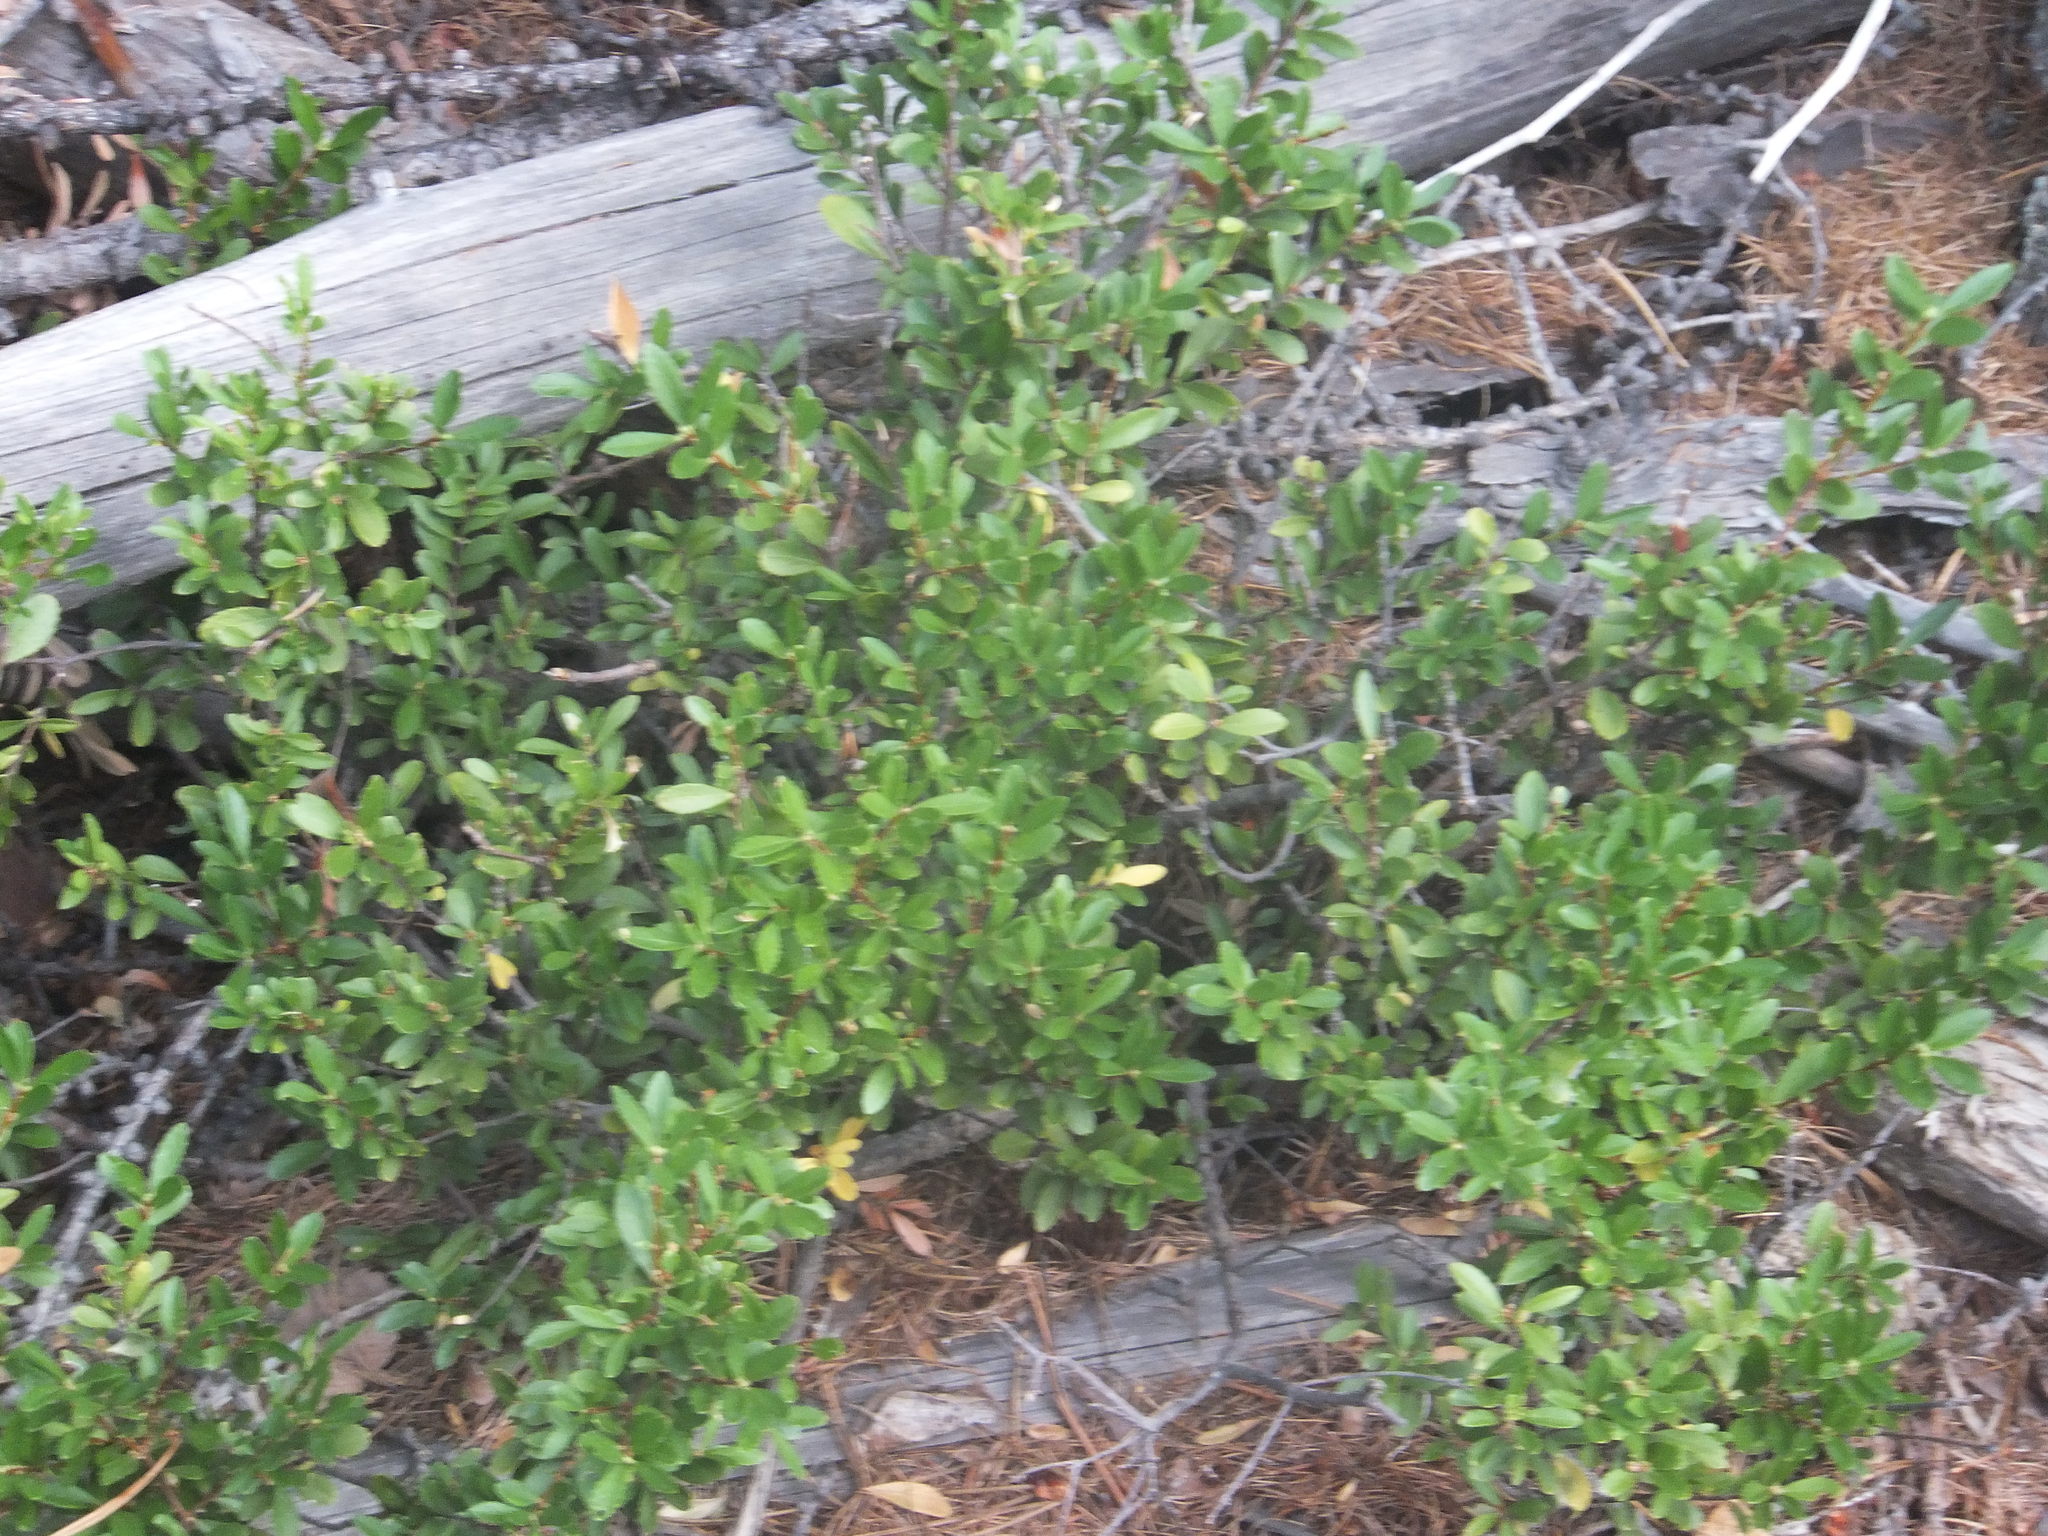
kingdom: Plantae
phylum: Tracheophyta
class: Magnoliopsida
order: Celastrales
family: Celastraceae
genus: Paxistima
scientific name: Paxistima myrsinites
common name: Mountain-lover
